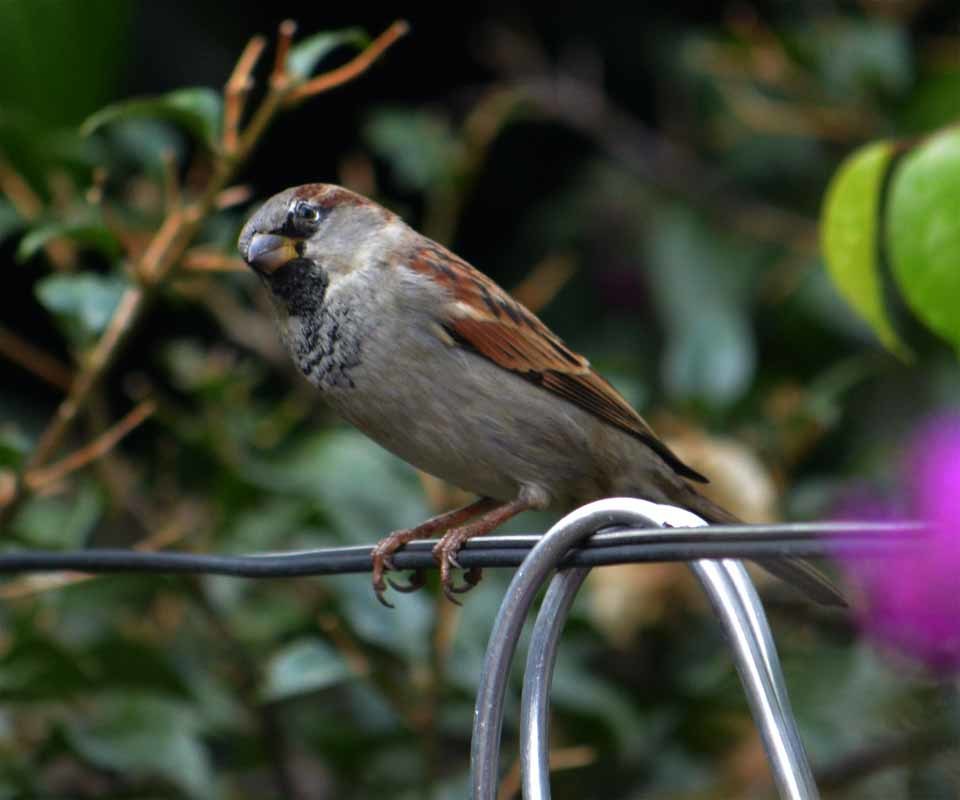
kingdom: Animalia
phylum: Chordata
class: Aves
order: Passeriformes
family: Passeridae
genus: Passer
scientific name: Passer domesticus
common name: House sparrow
